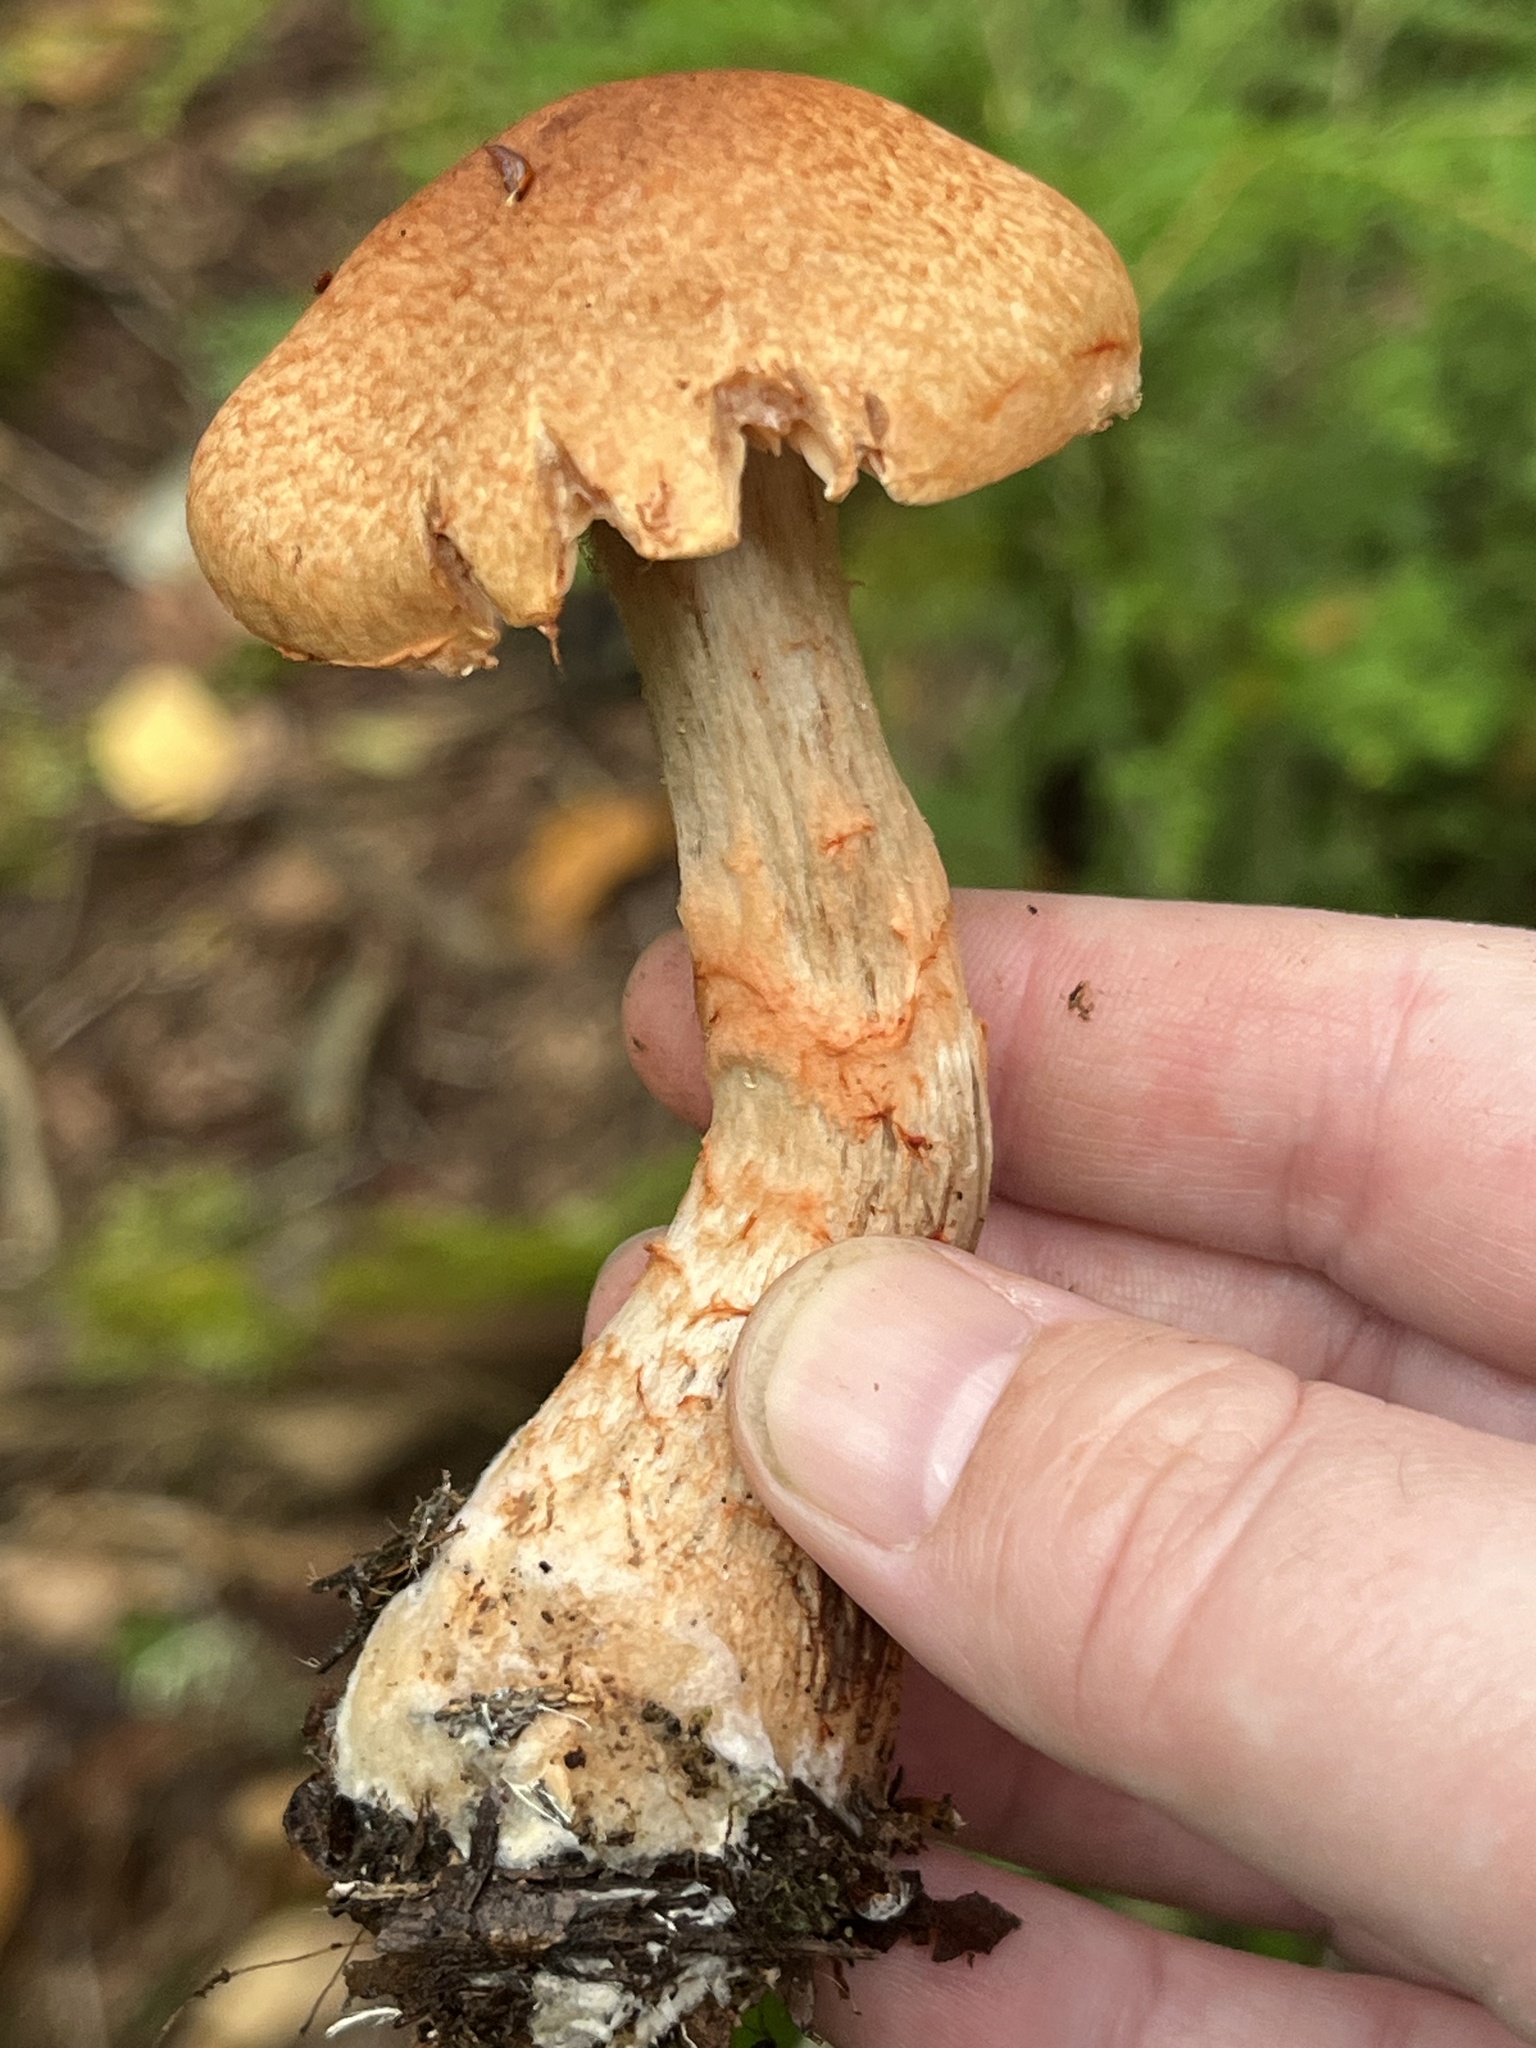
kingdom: Fungi
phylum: Basidiomycota
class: Agaricomycetes
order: Agaricales
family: Cortinariaceae
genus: Cortinarius
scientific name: Cortinarius armillatus
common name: Red banded webcap
